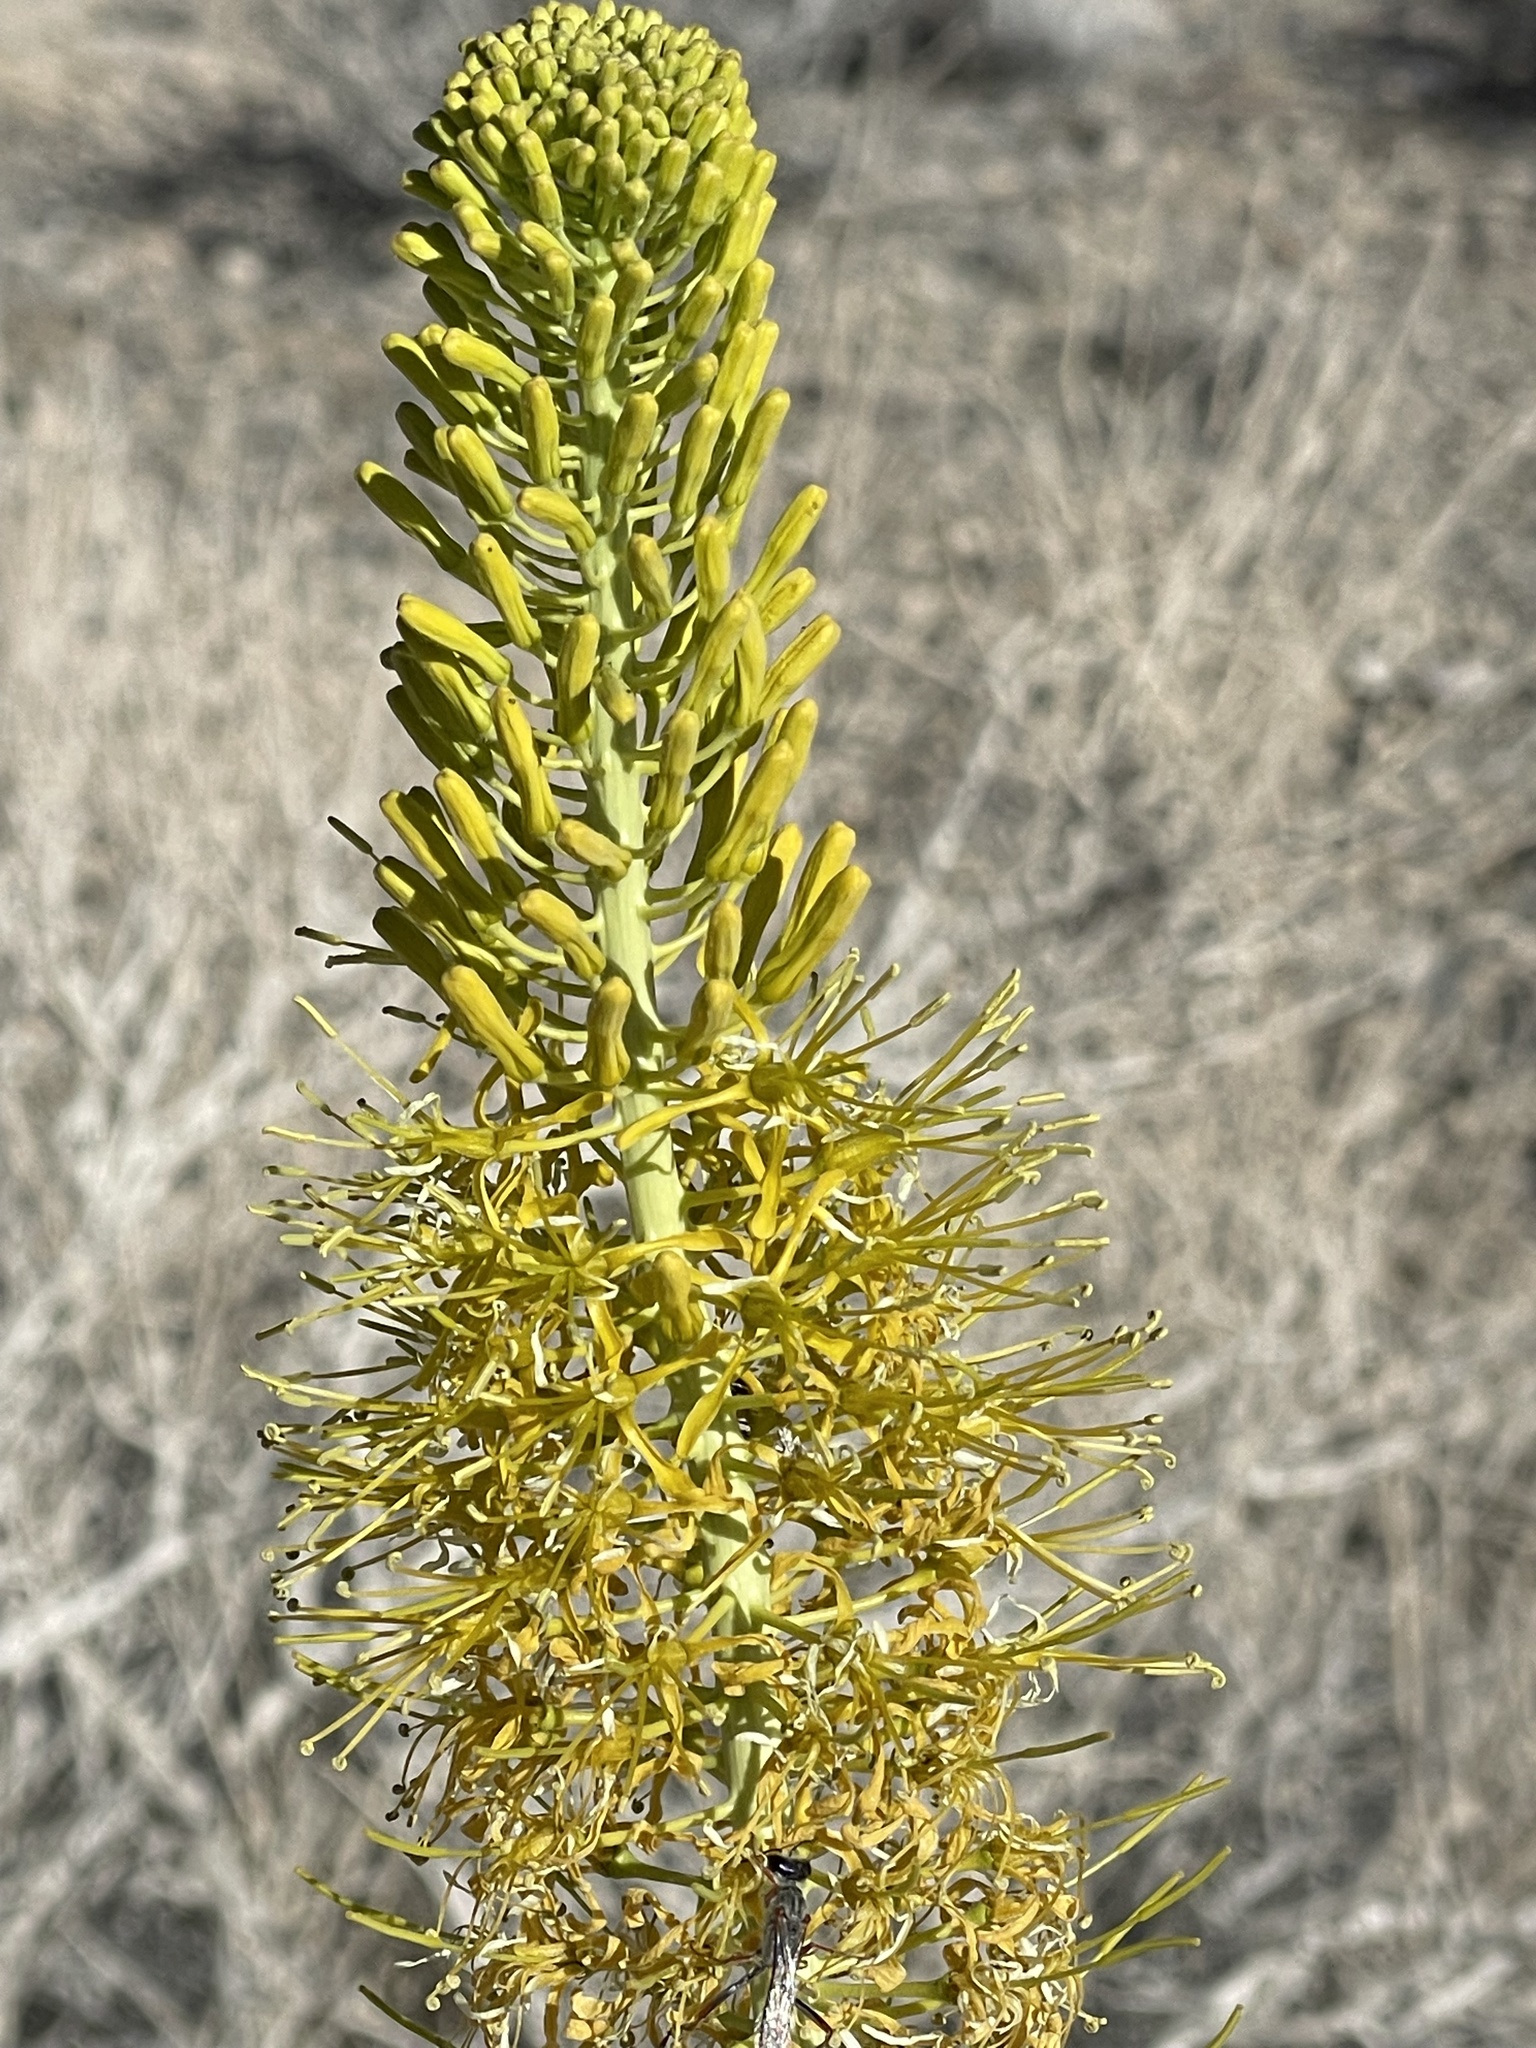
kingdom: Plantae
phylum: Tracheophyta
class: Magnoliopsida
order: Brassicales
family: Brassicaceae
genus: Stanleya
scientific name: Stanleya elata
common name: Panamint prince's plume
